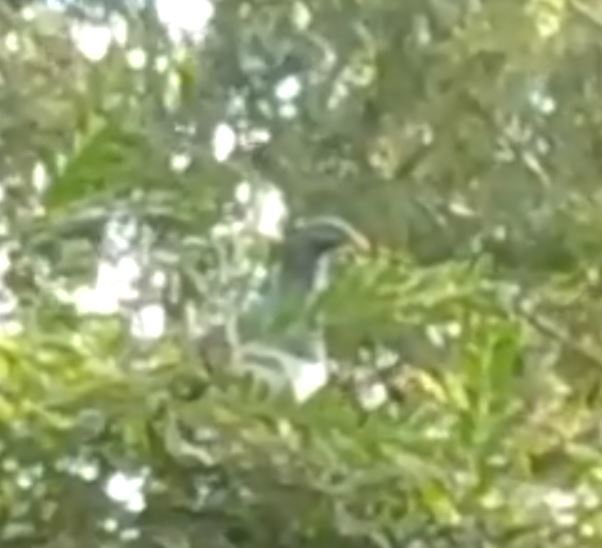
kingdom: Animalia
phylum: Chordata
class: Aves
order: Columbiformes
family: Columbidae
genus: Hemiphaga
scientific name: Hemiphaga novaeseelandiae
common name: New zealand pigeon
